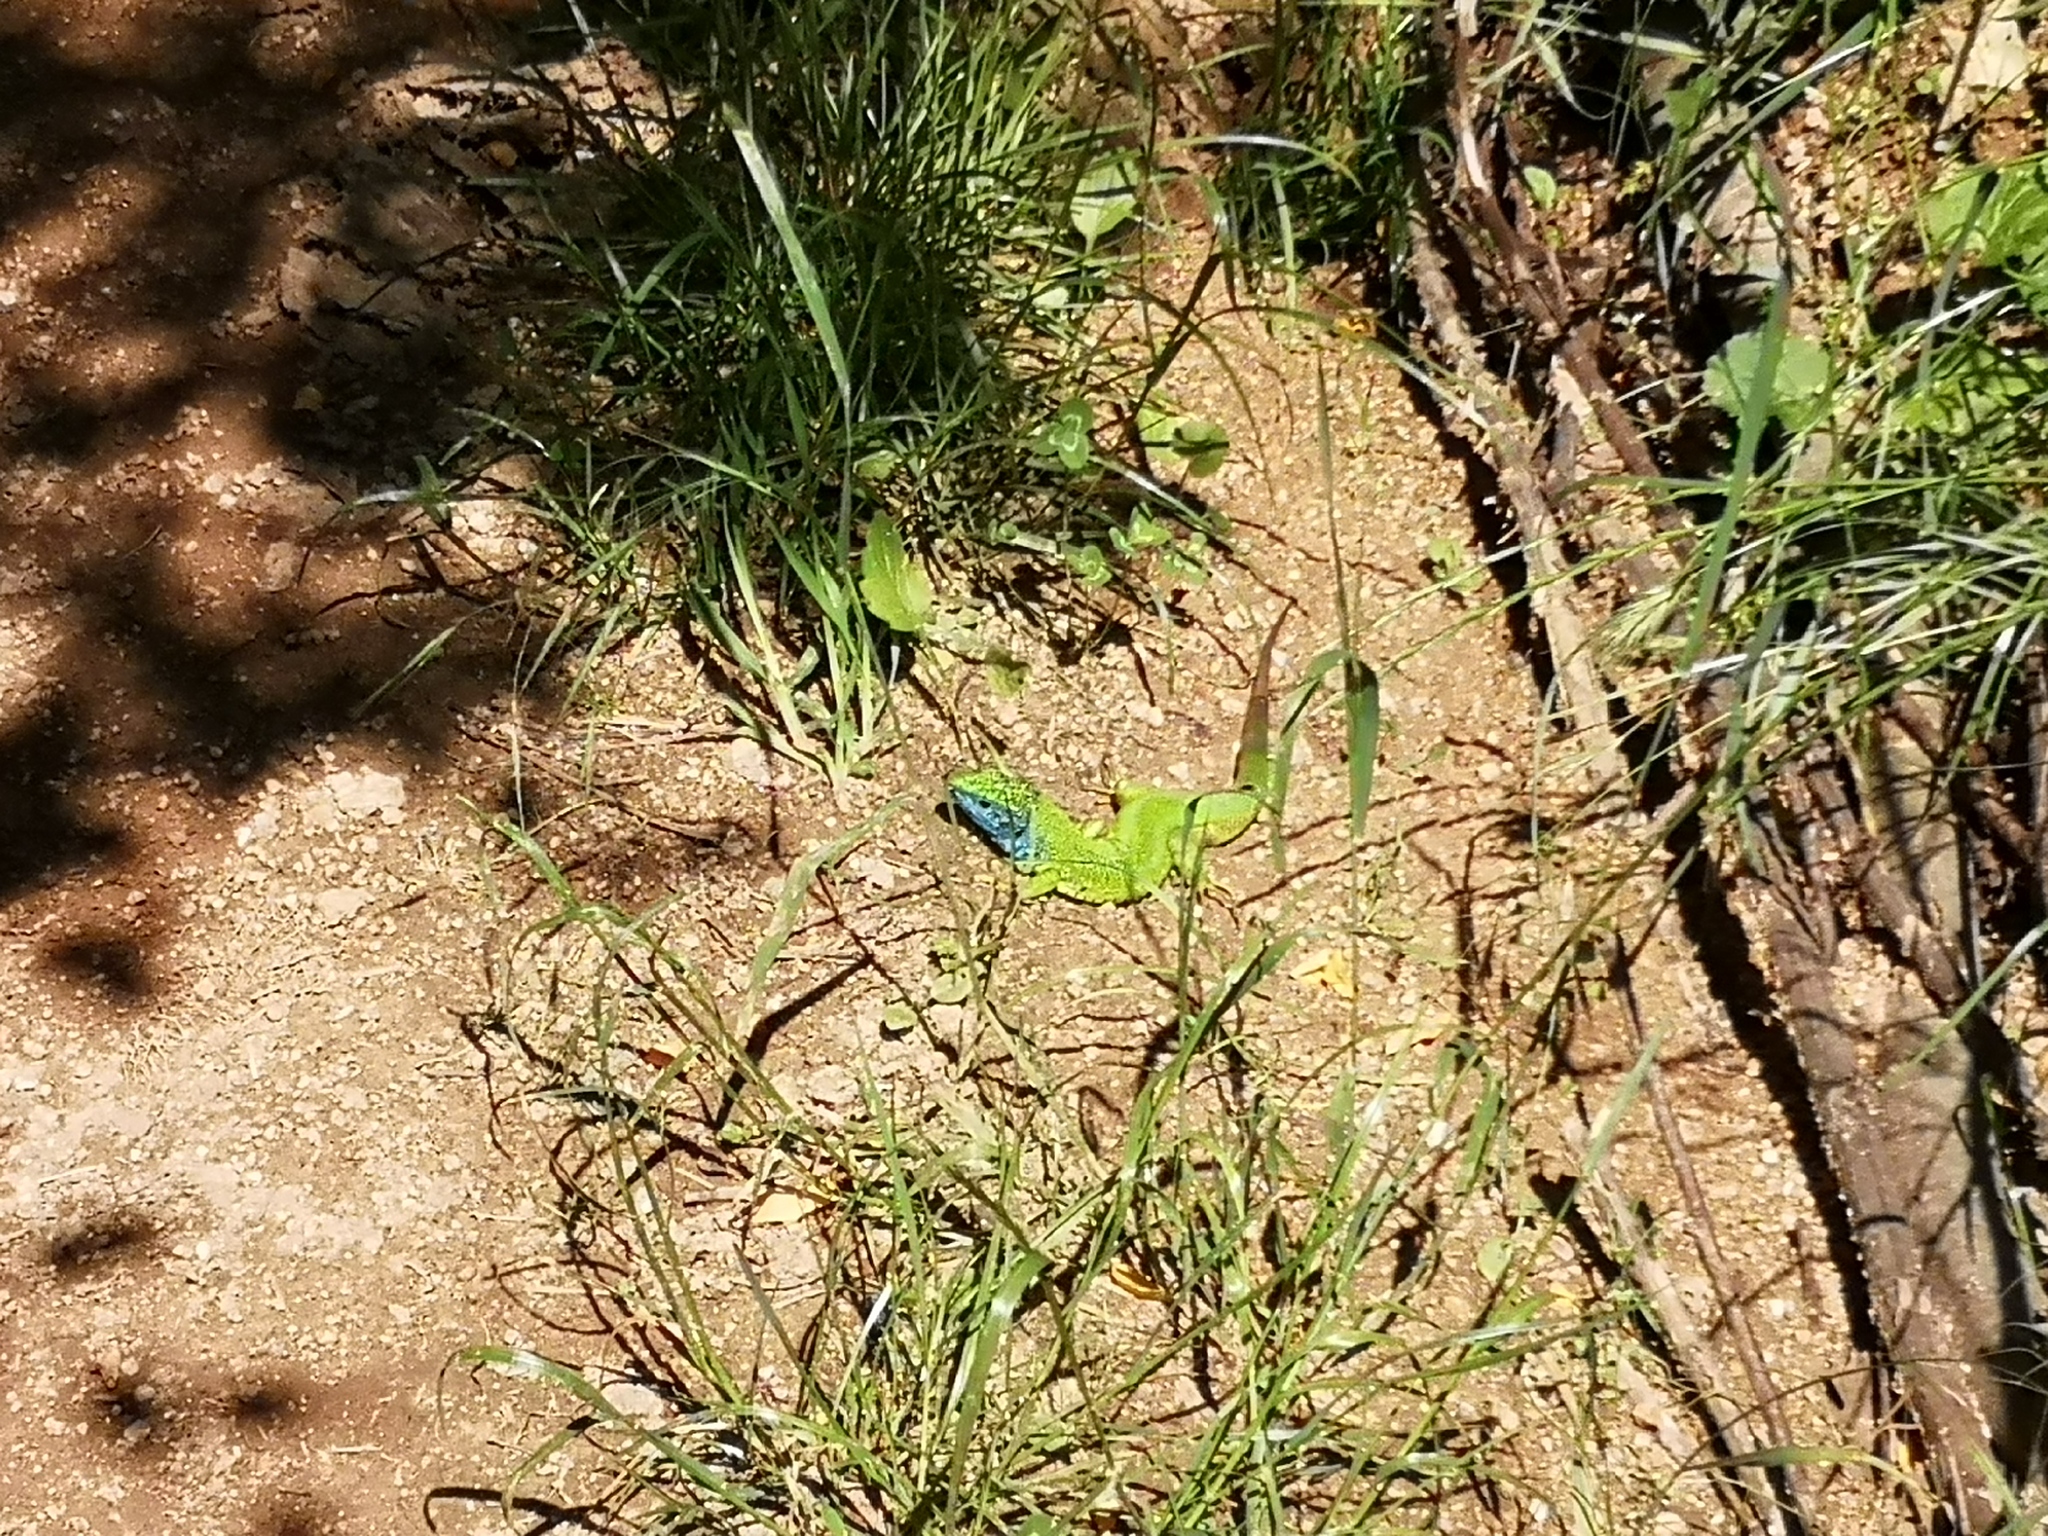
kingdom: Animalia
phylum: Chordata
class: Squamata
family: Lacertidae
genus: Lacerta
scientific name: Lacerta viridis
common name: European green lizard
